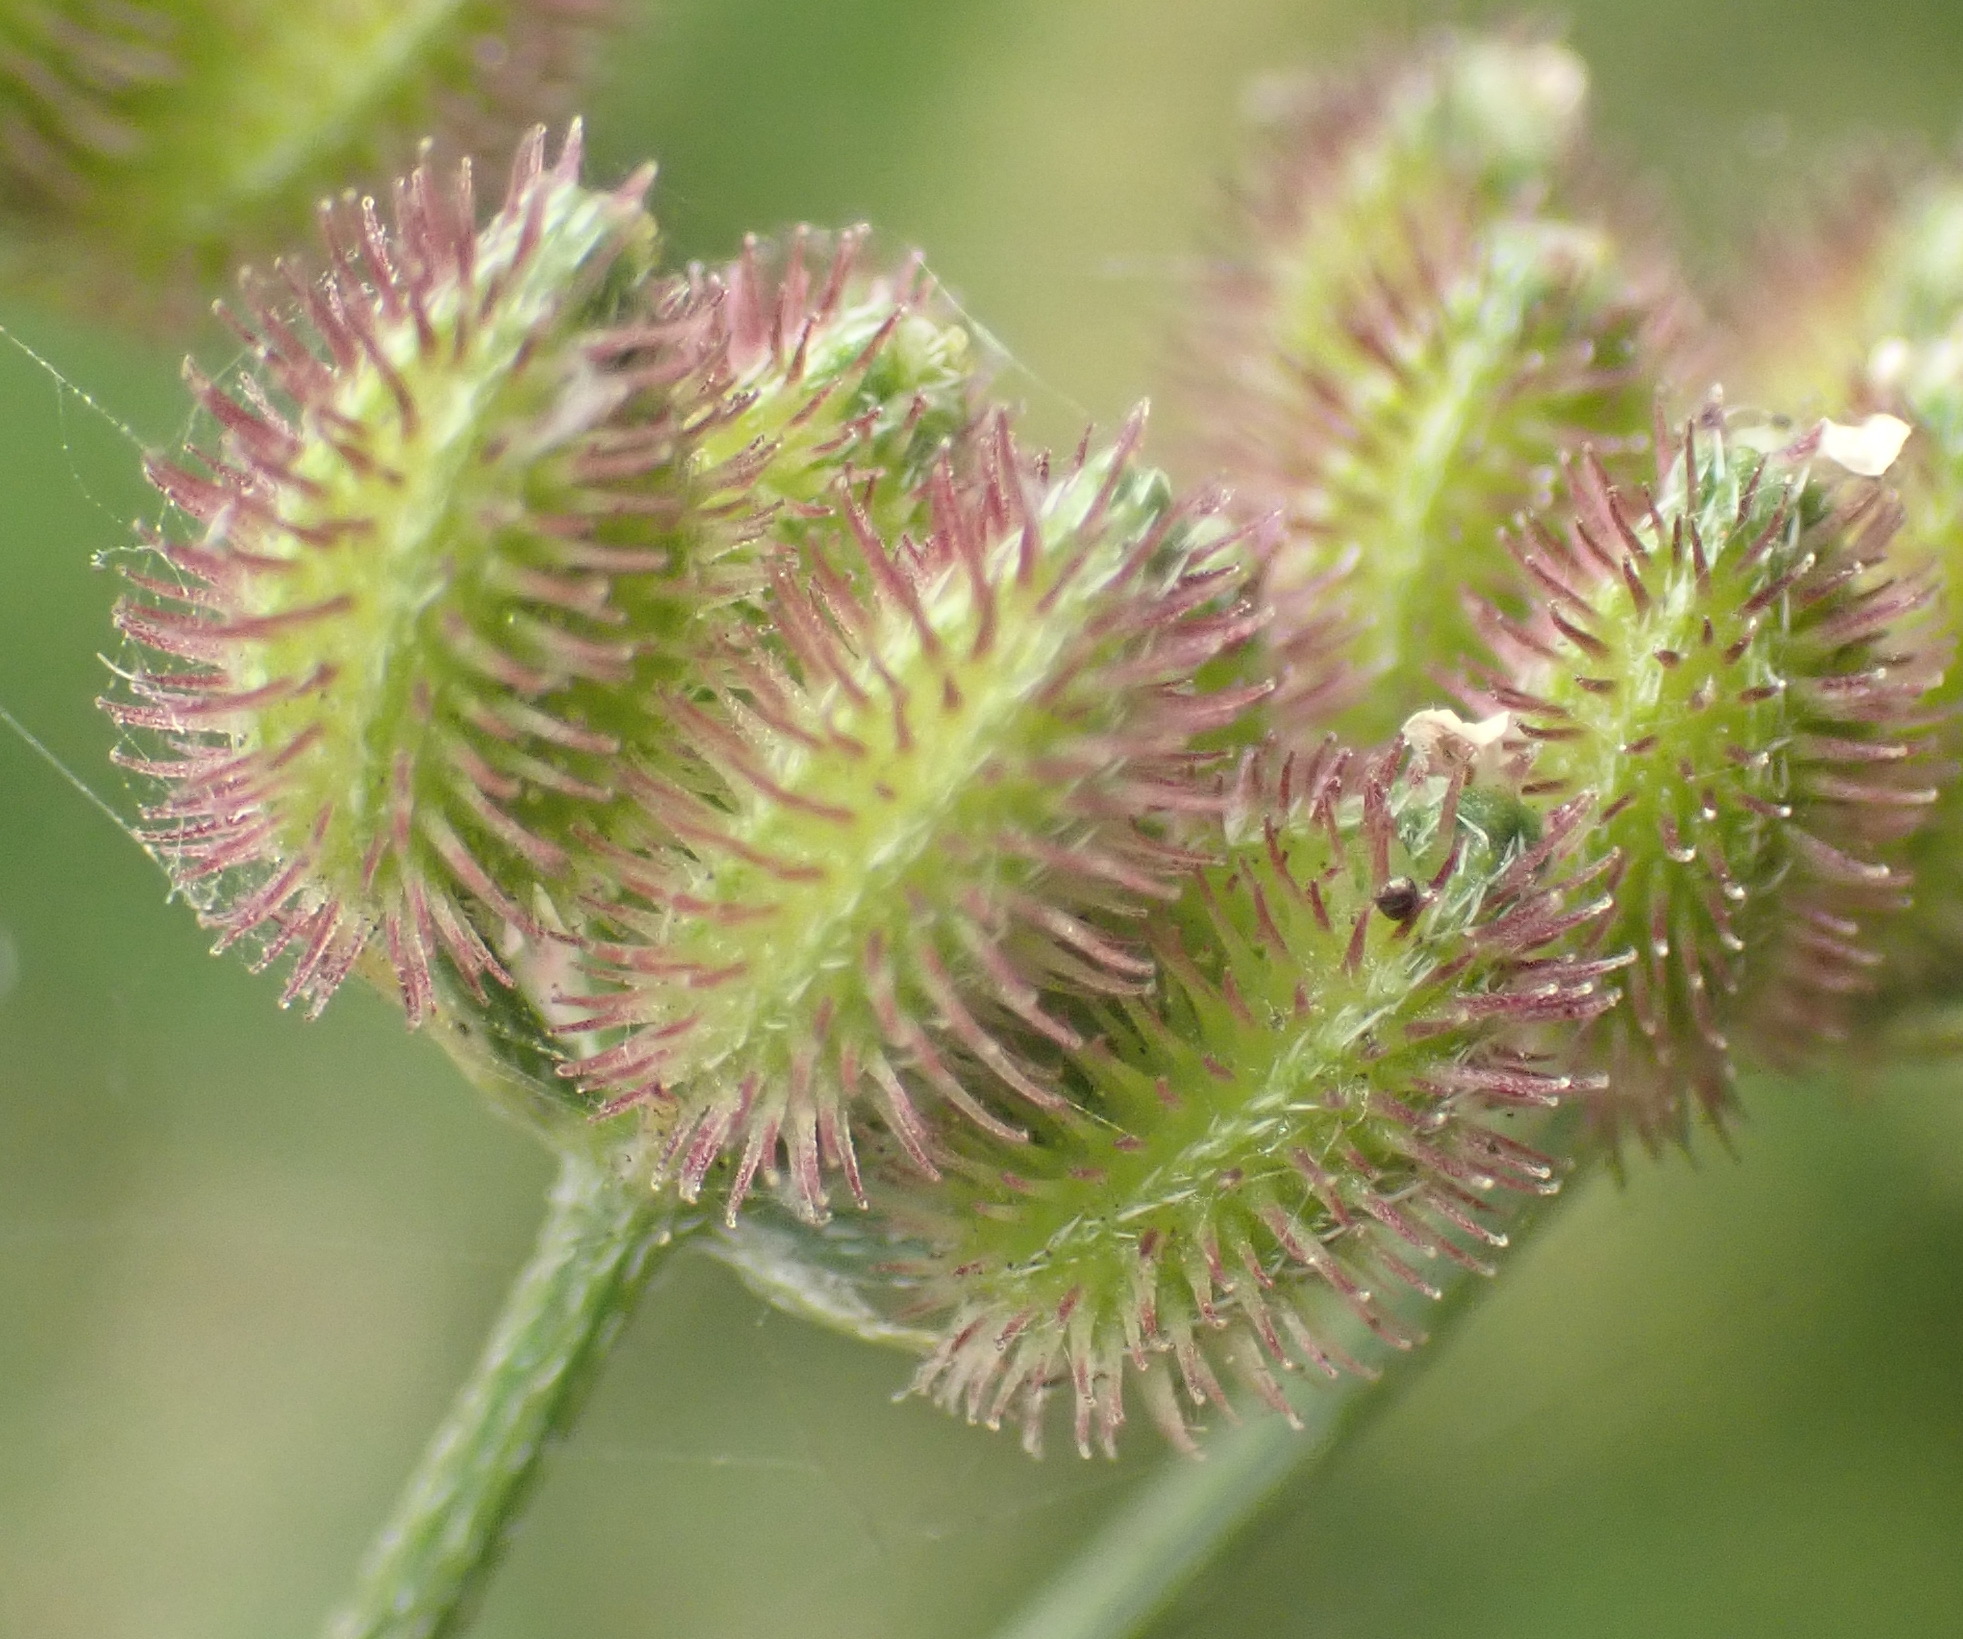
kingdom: Plantae
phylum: Tracheophyta
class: Magnoliopsida
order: Apiales
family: Apiaceae
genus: Torilis
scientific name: Torilis arvensis
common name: Spreading hedge-parsley
